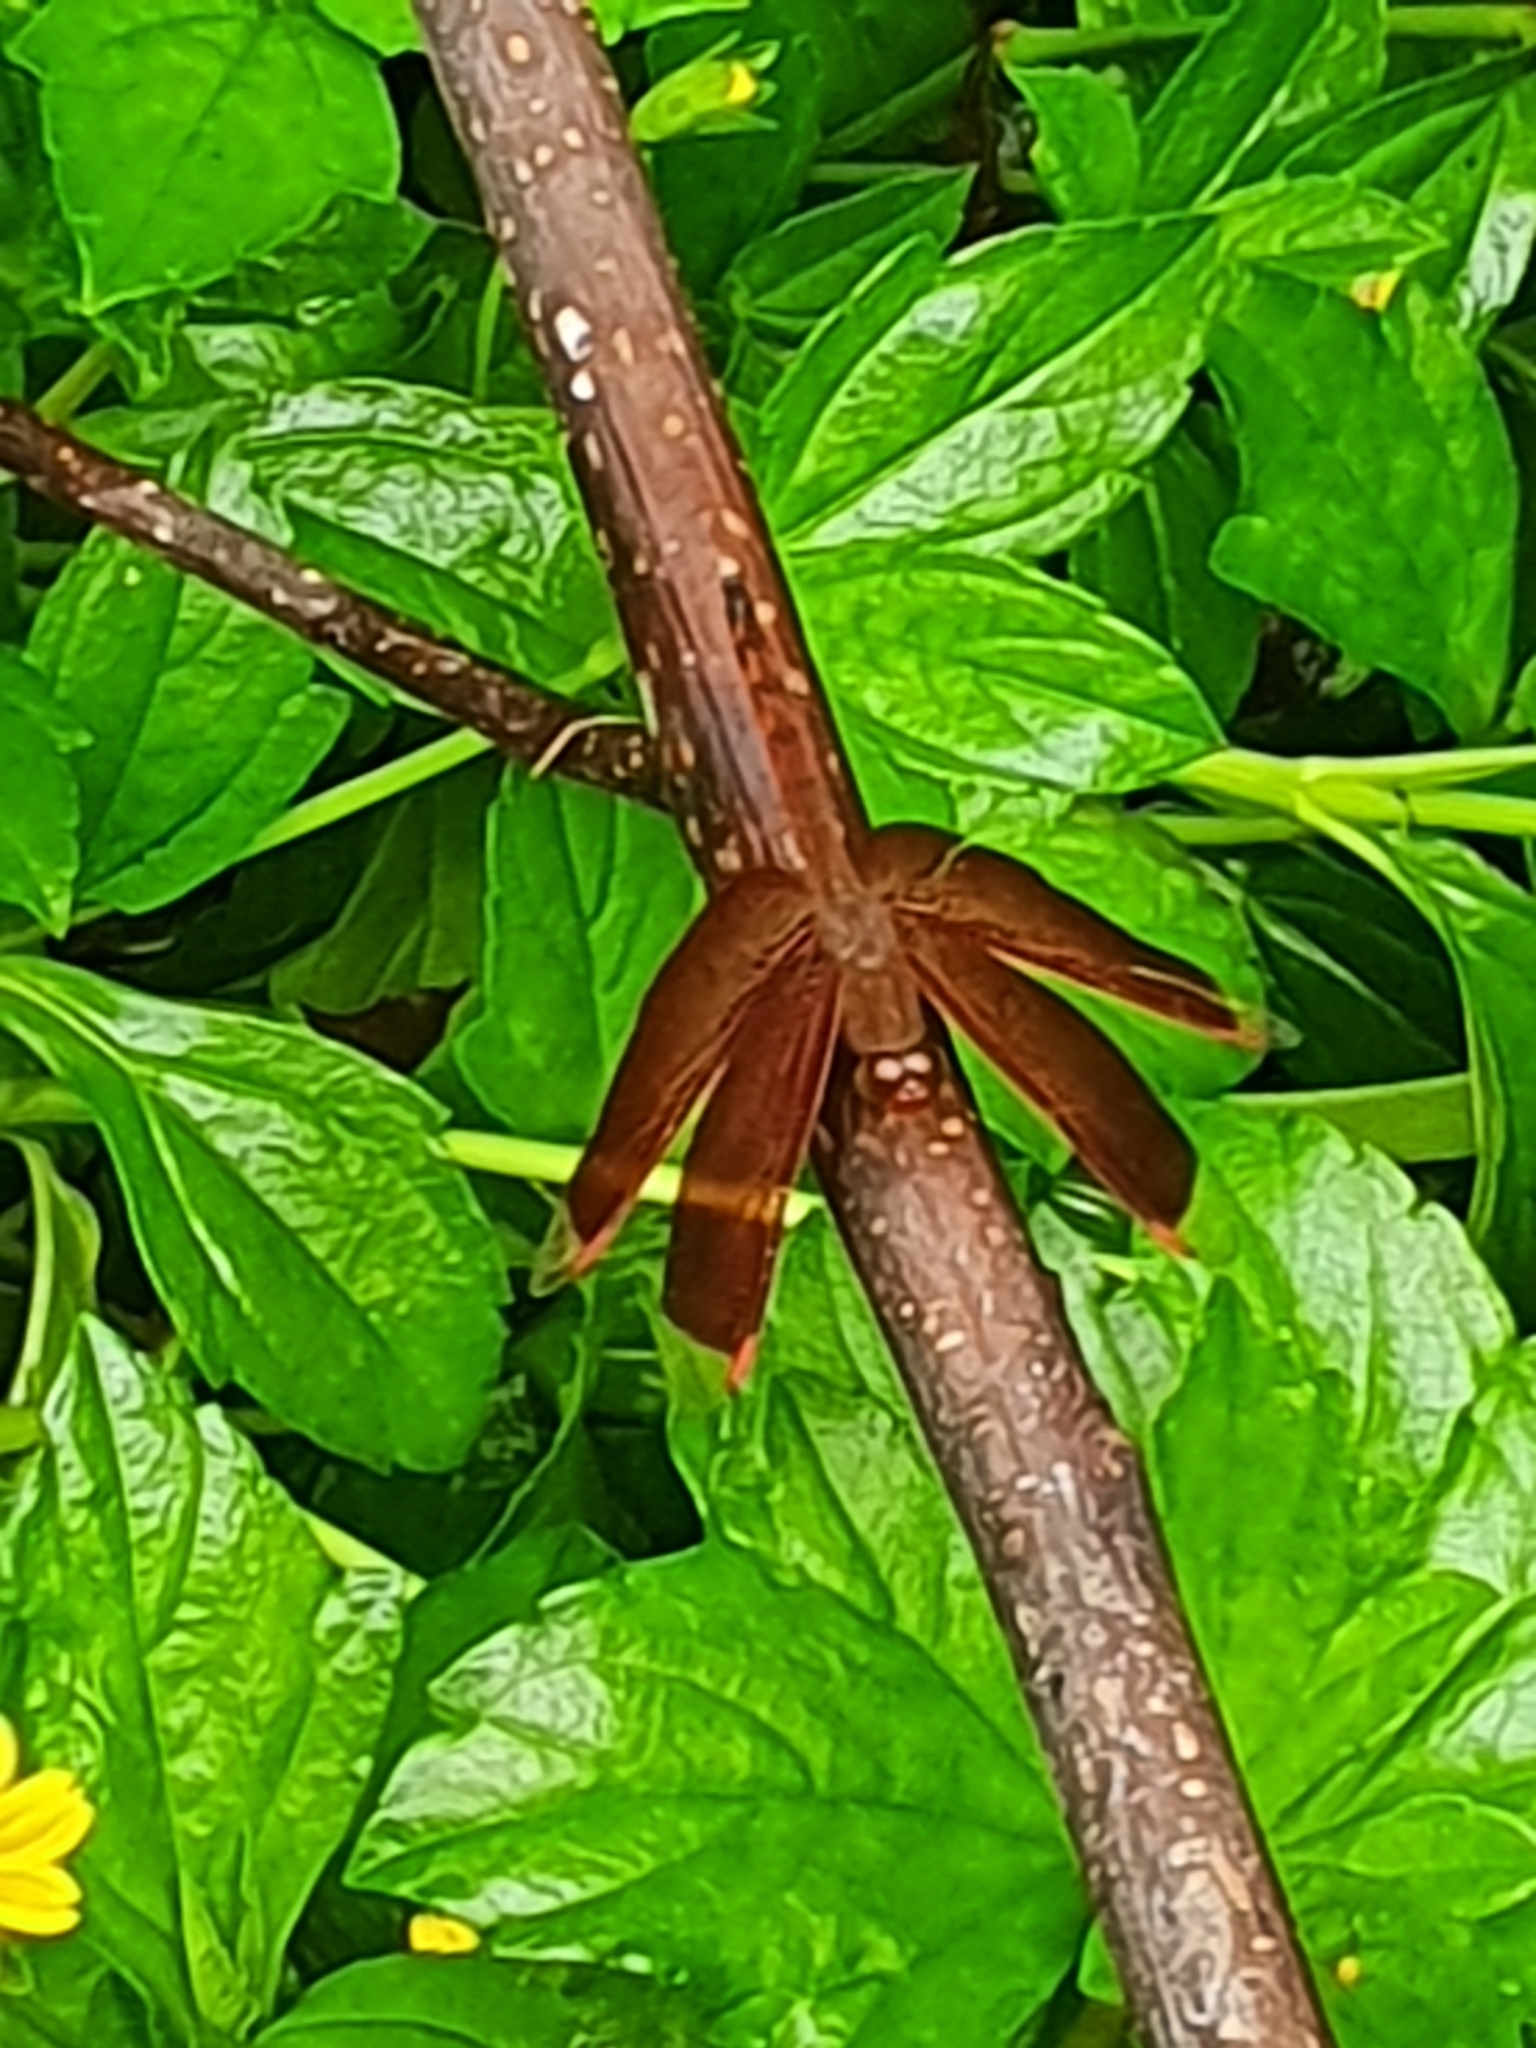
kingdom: Animalia
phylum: Arthropoda
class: Insecta
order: Odonata
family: Libellulidae
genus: Neurothemis
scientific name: Neurothemis terminata
